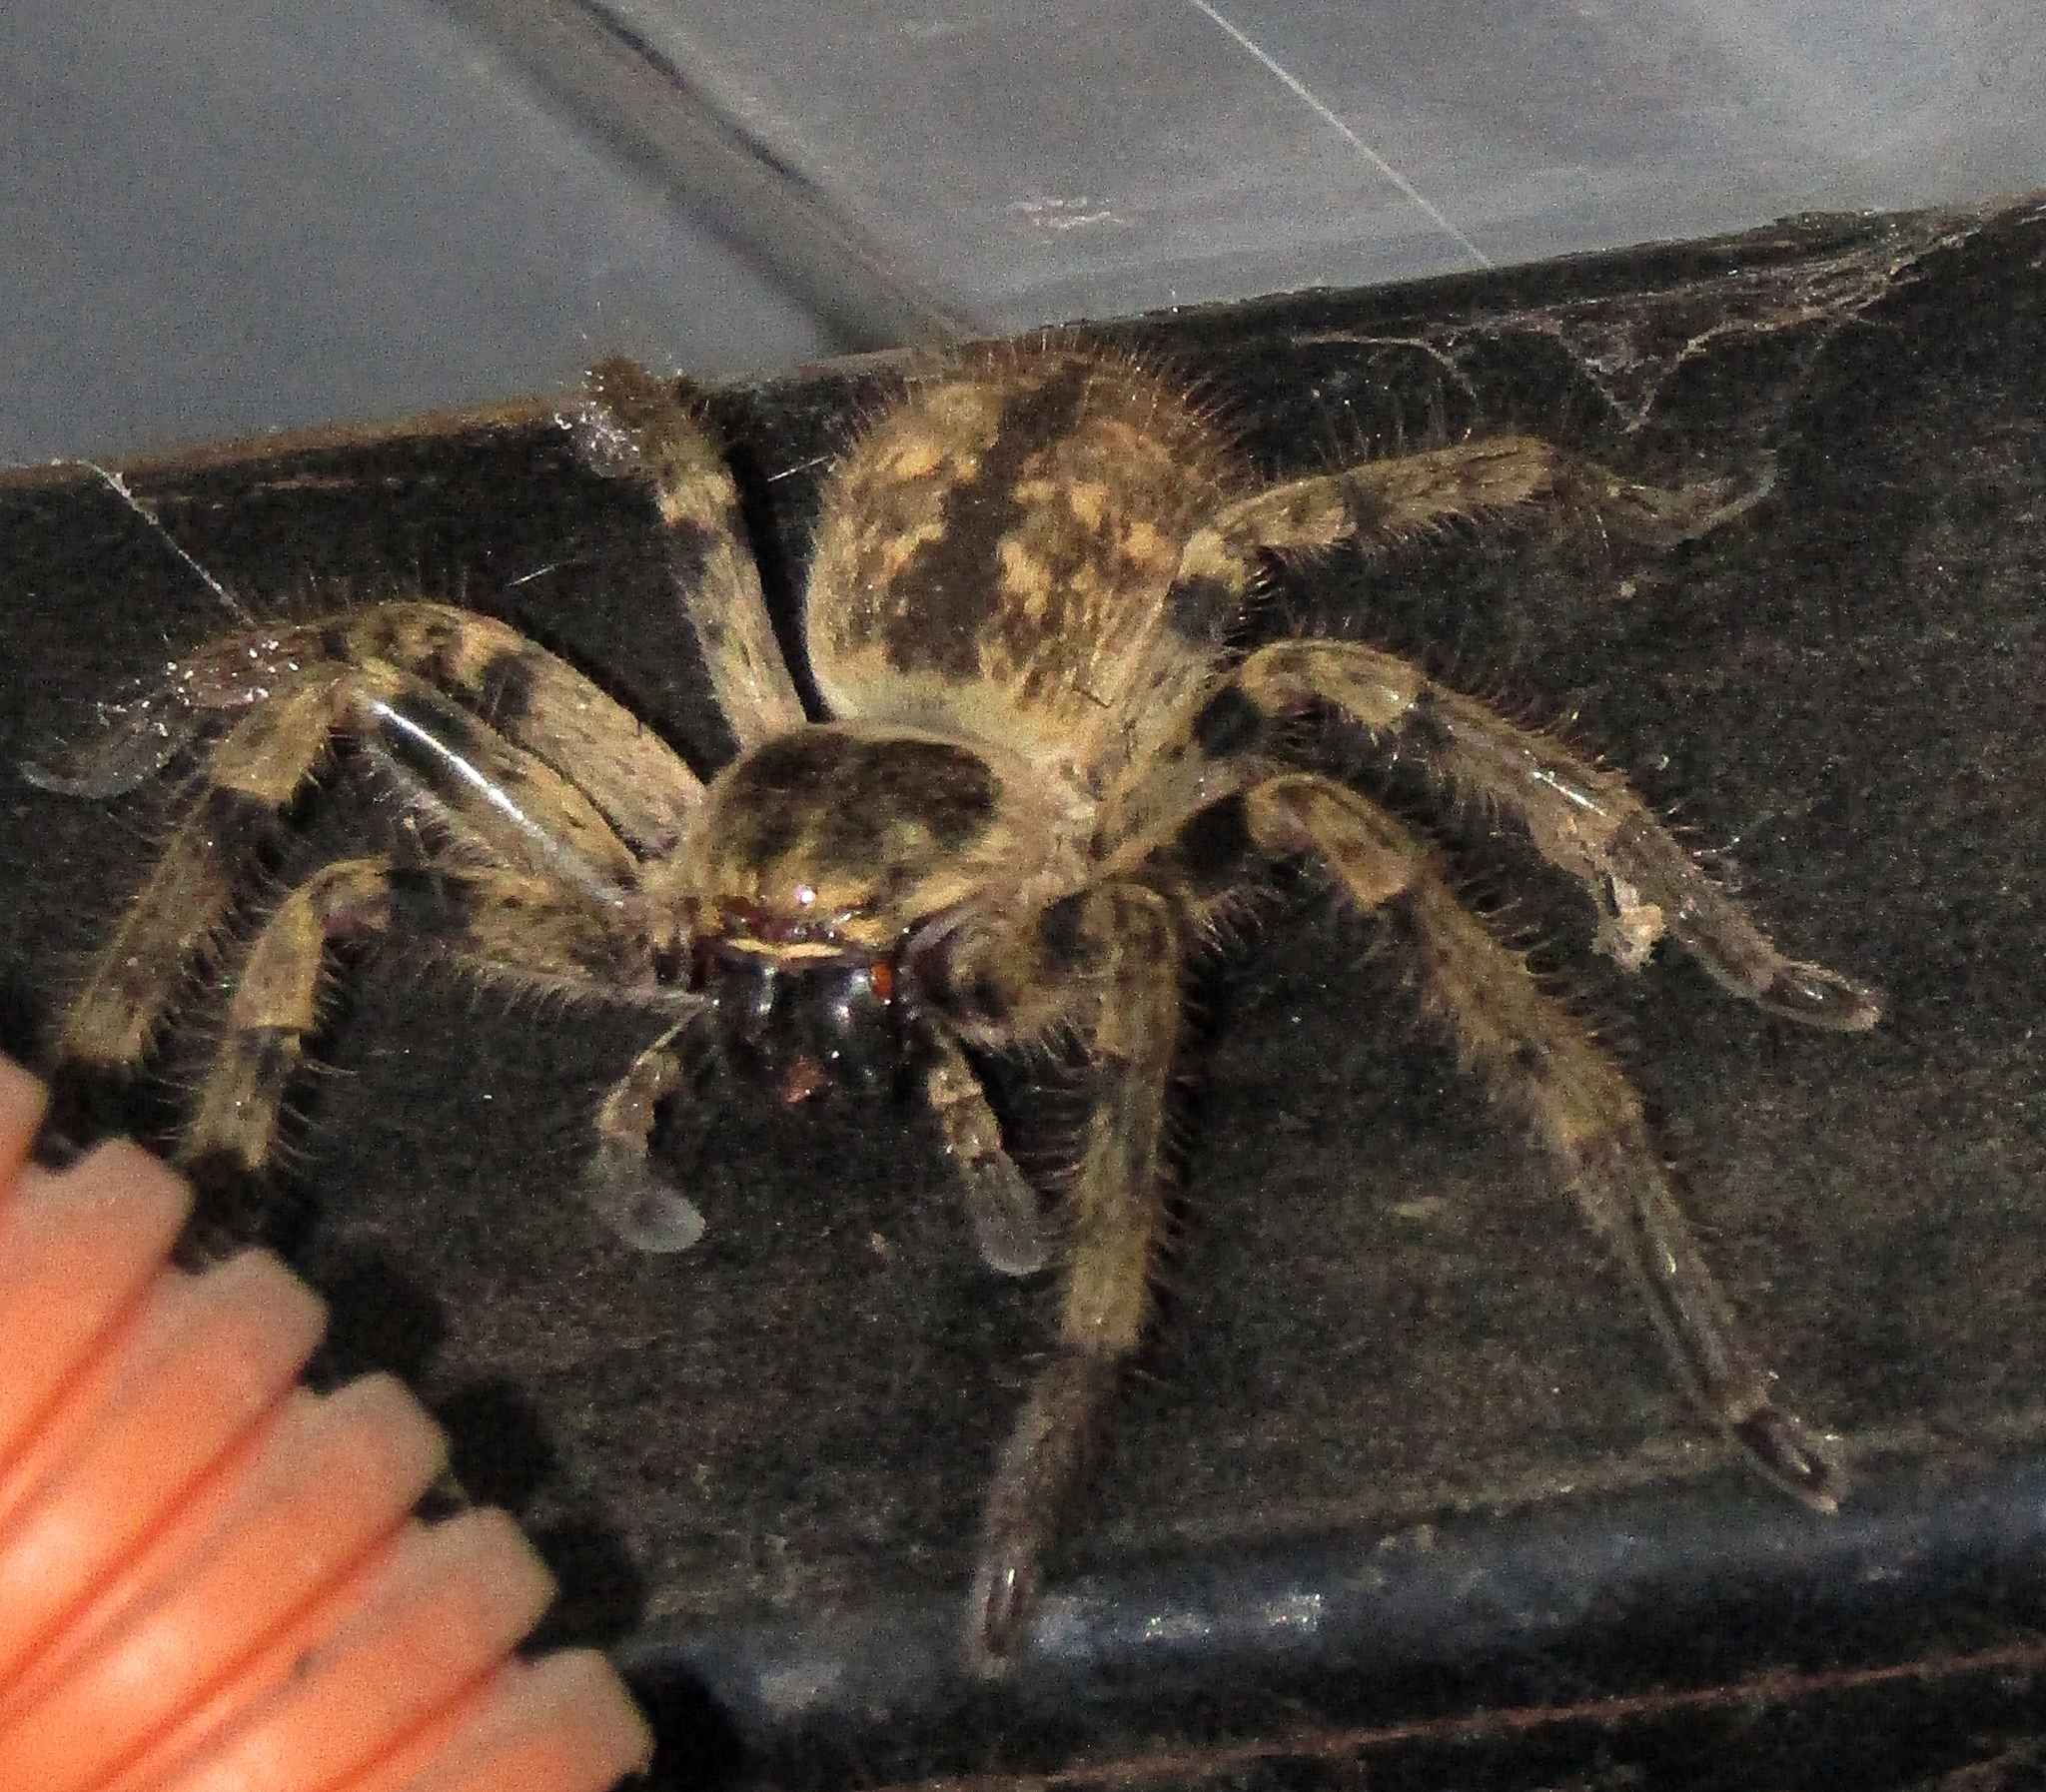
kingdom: Animalia
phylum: Arthropoda
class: Arachnida
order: Araneae
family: Sparassidae
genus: Polybetes
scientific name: Polybetes pythagoricus
